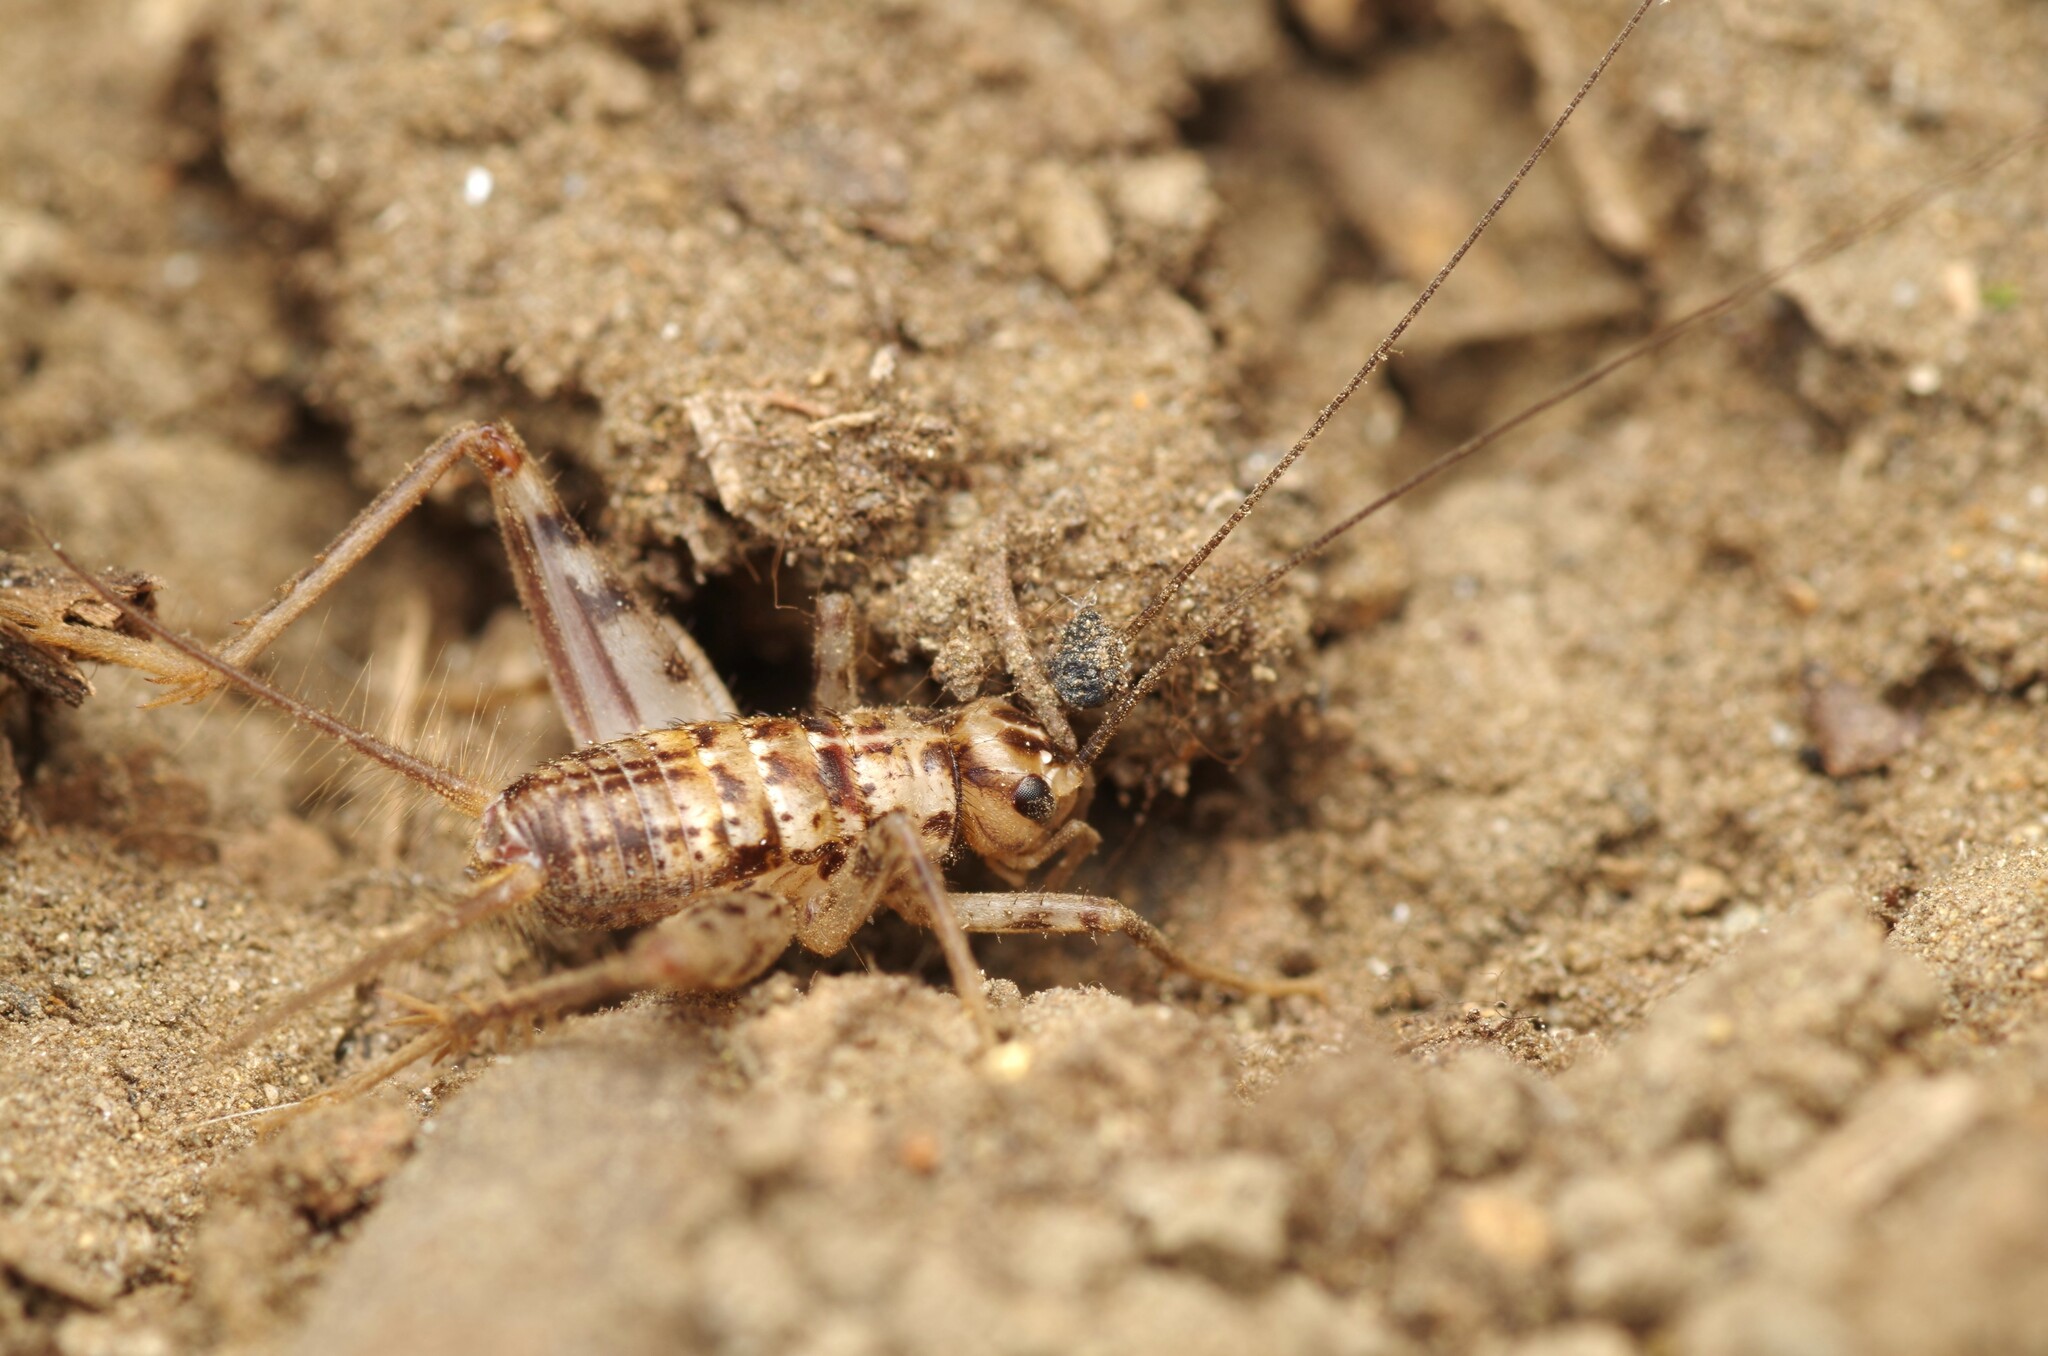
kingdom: Animalia
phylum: Arthropoda
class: Insecta
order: Orthoptera
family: Gryllidae
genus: Gryllomorpha
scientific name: Gryllomorpha dalmatina
